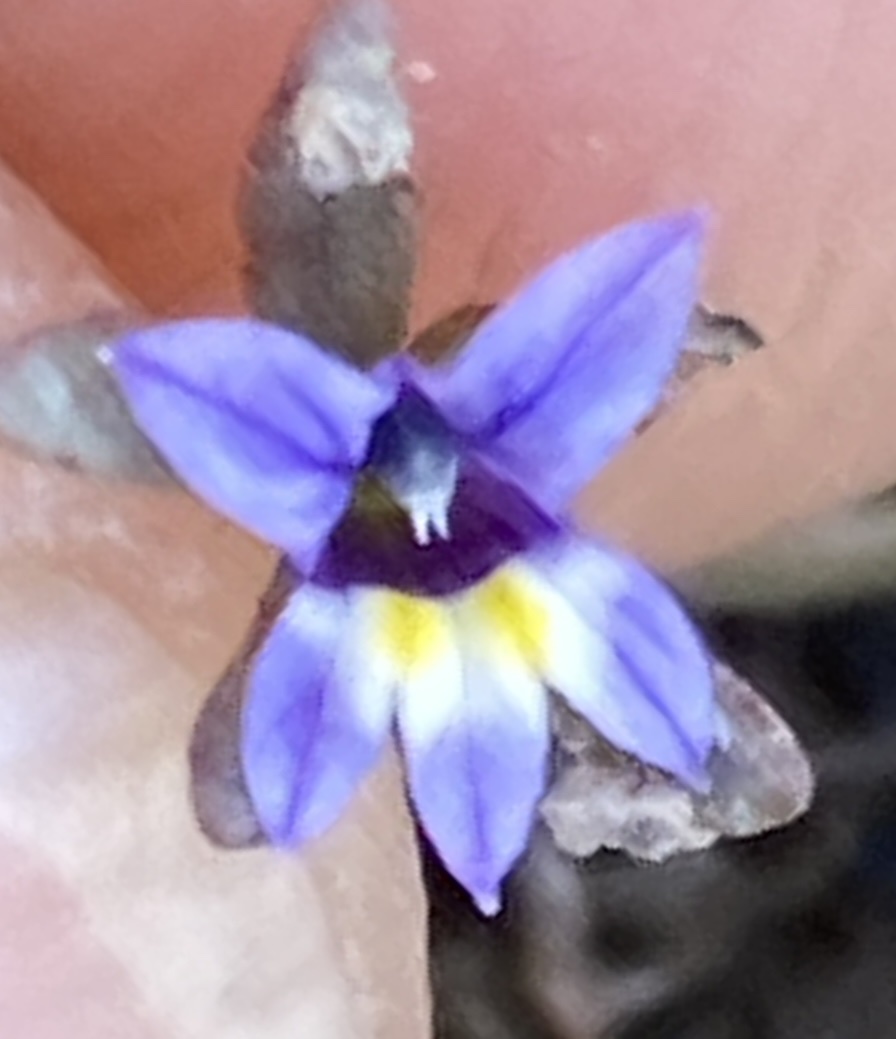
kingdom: Plantae
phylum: Tracheophyta
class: Magnoliopsida
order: Asterales
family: Campanulaceae
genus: Downingia
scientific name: Downingia pusilla
